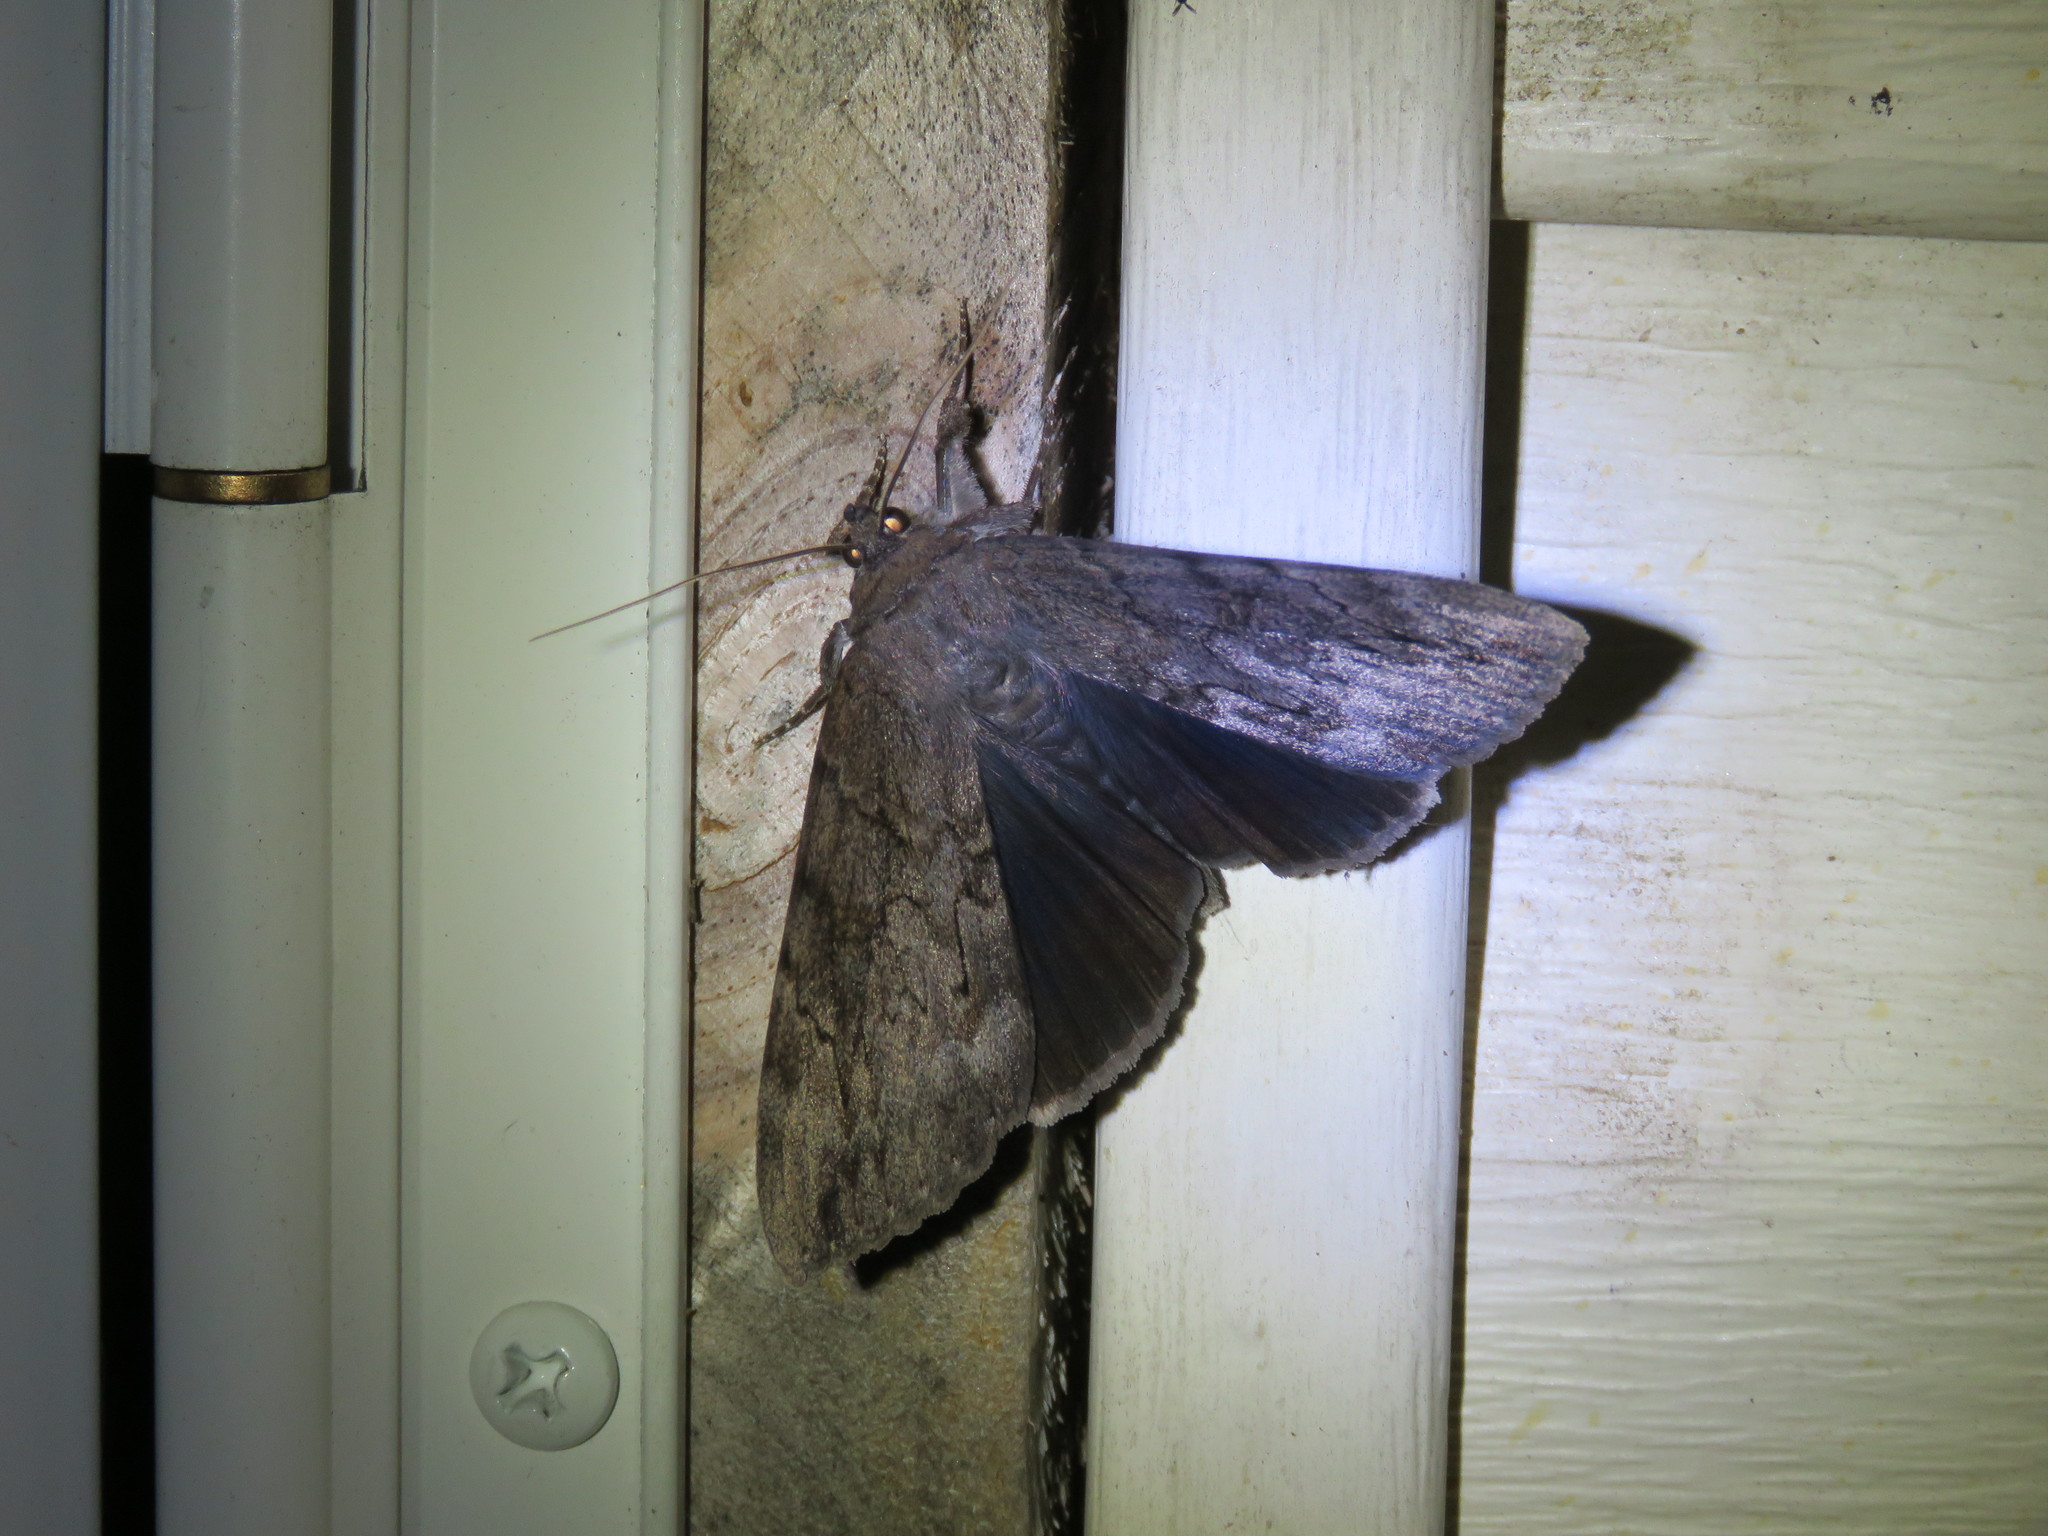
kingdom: Animalia
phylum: Arthropoda
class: Insecta
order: Lepidoptera
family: Erebidae
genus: Catocala
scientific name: Catocala residua
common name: Residua underwing
